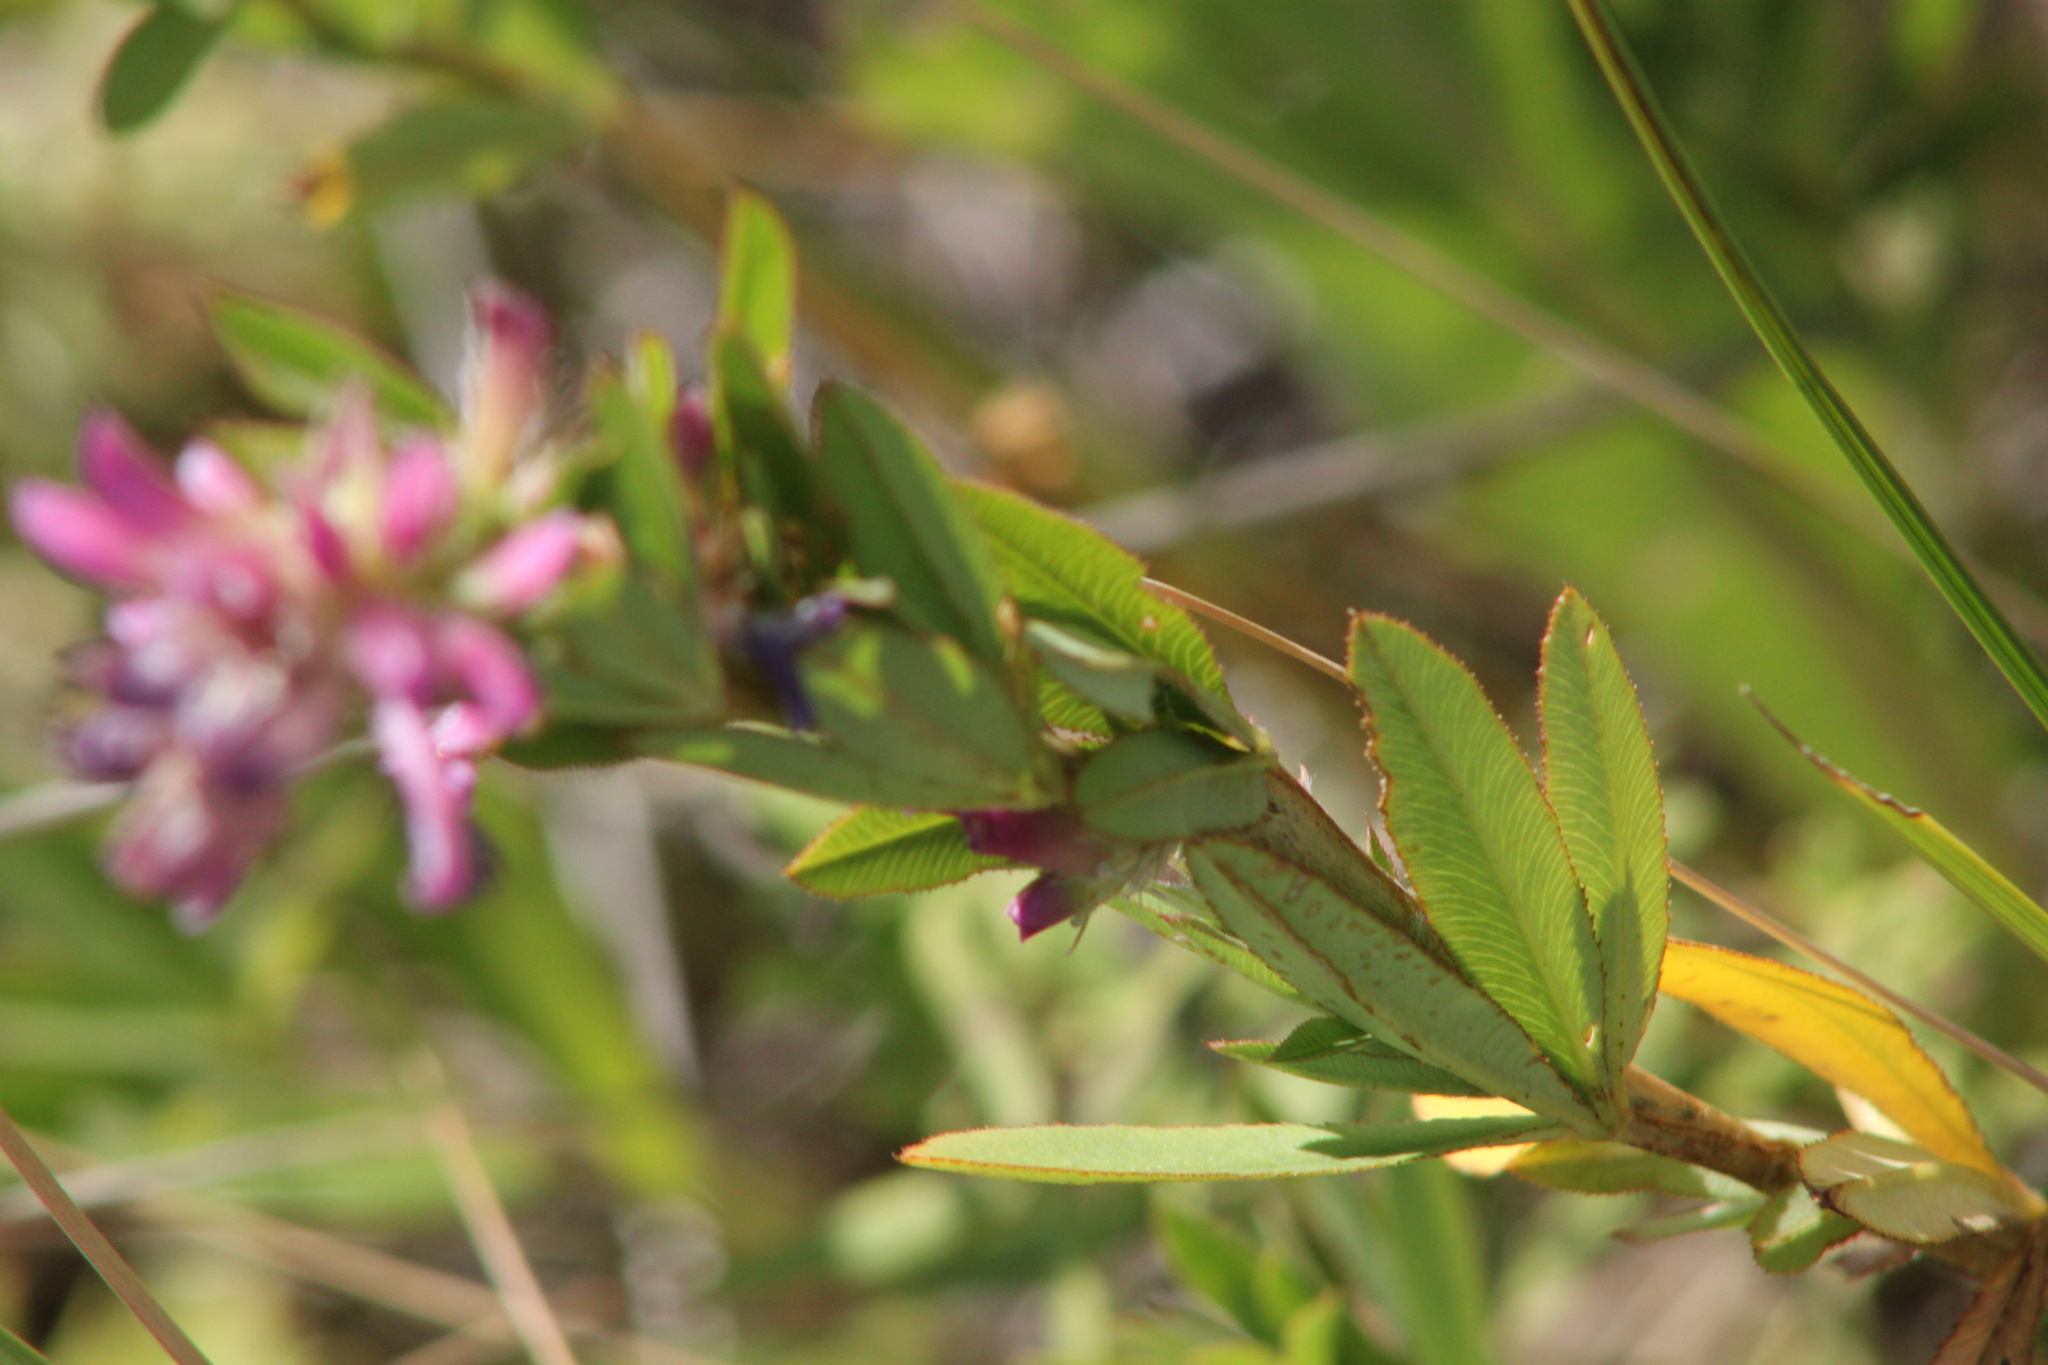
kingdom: Plantae
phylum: Tracheophyta
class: Magnoliopsida
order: Fabales
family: Fabaceae
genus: Trifolium
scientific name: Trifolium lupinaster
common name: Lupine clover
